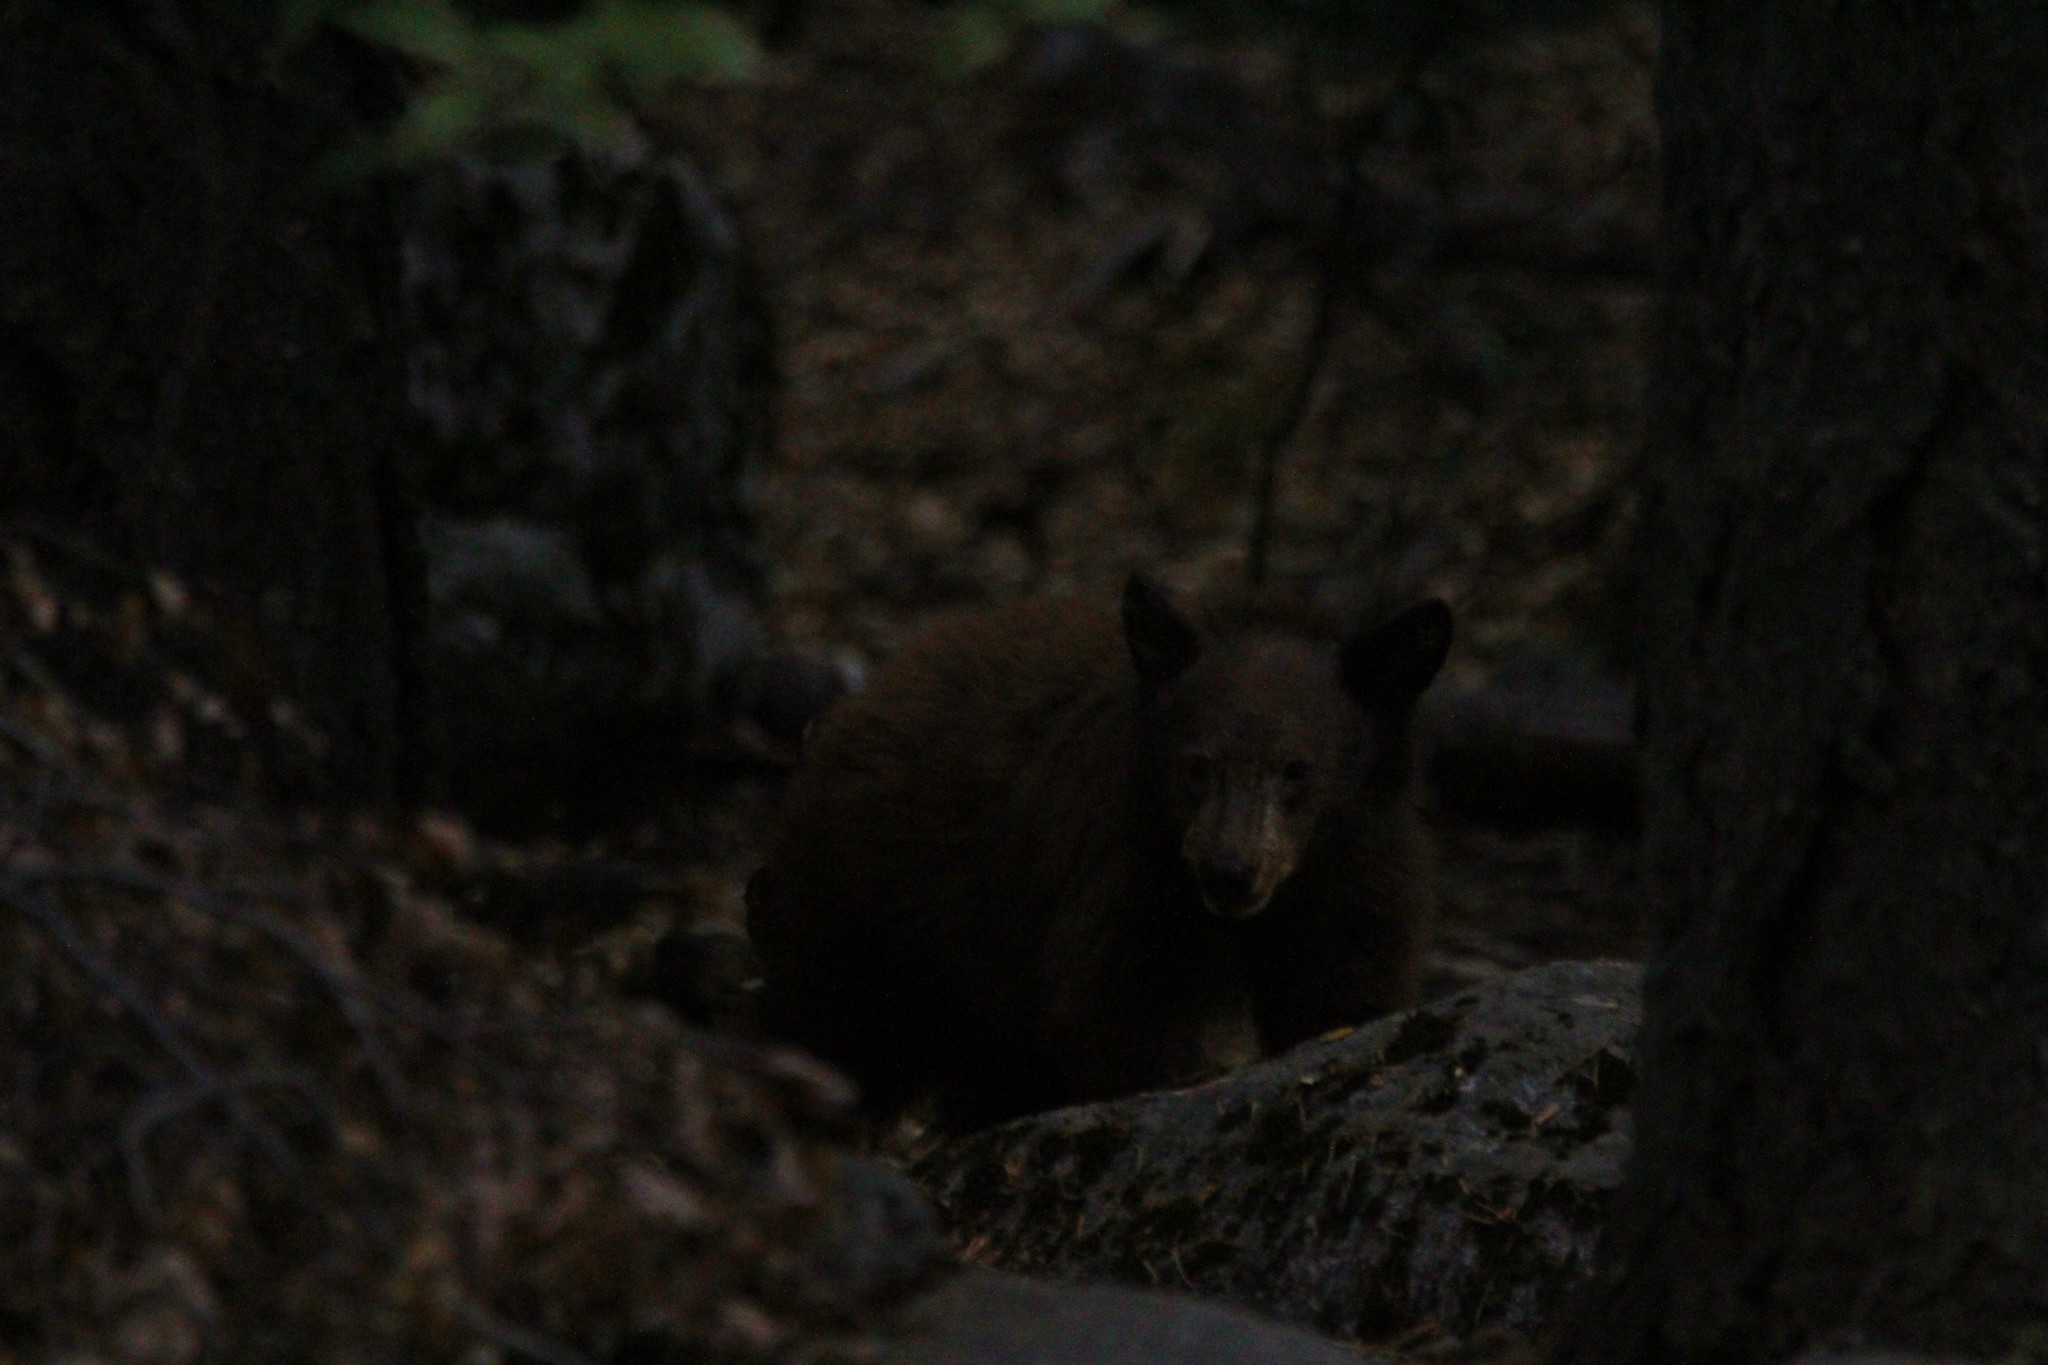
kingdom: Animalia
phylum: Chordata
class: Mammalia
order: Carnivora
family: Ursidae
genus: Ursus
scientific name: Ursus americanus
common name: American black bear
